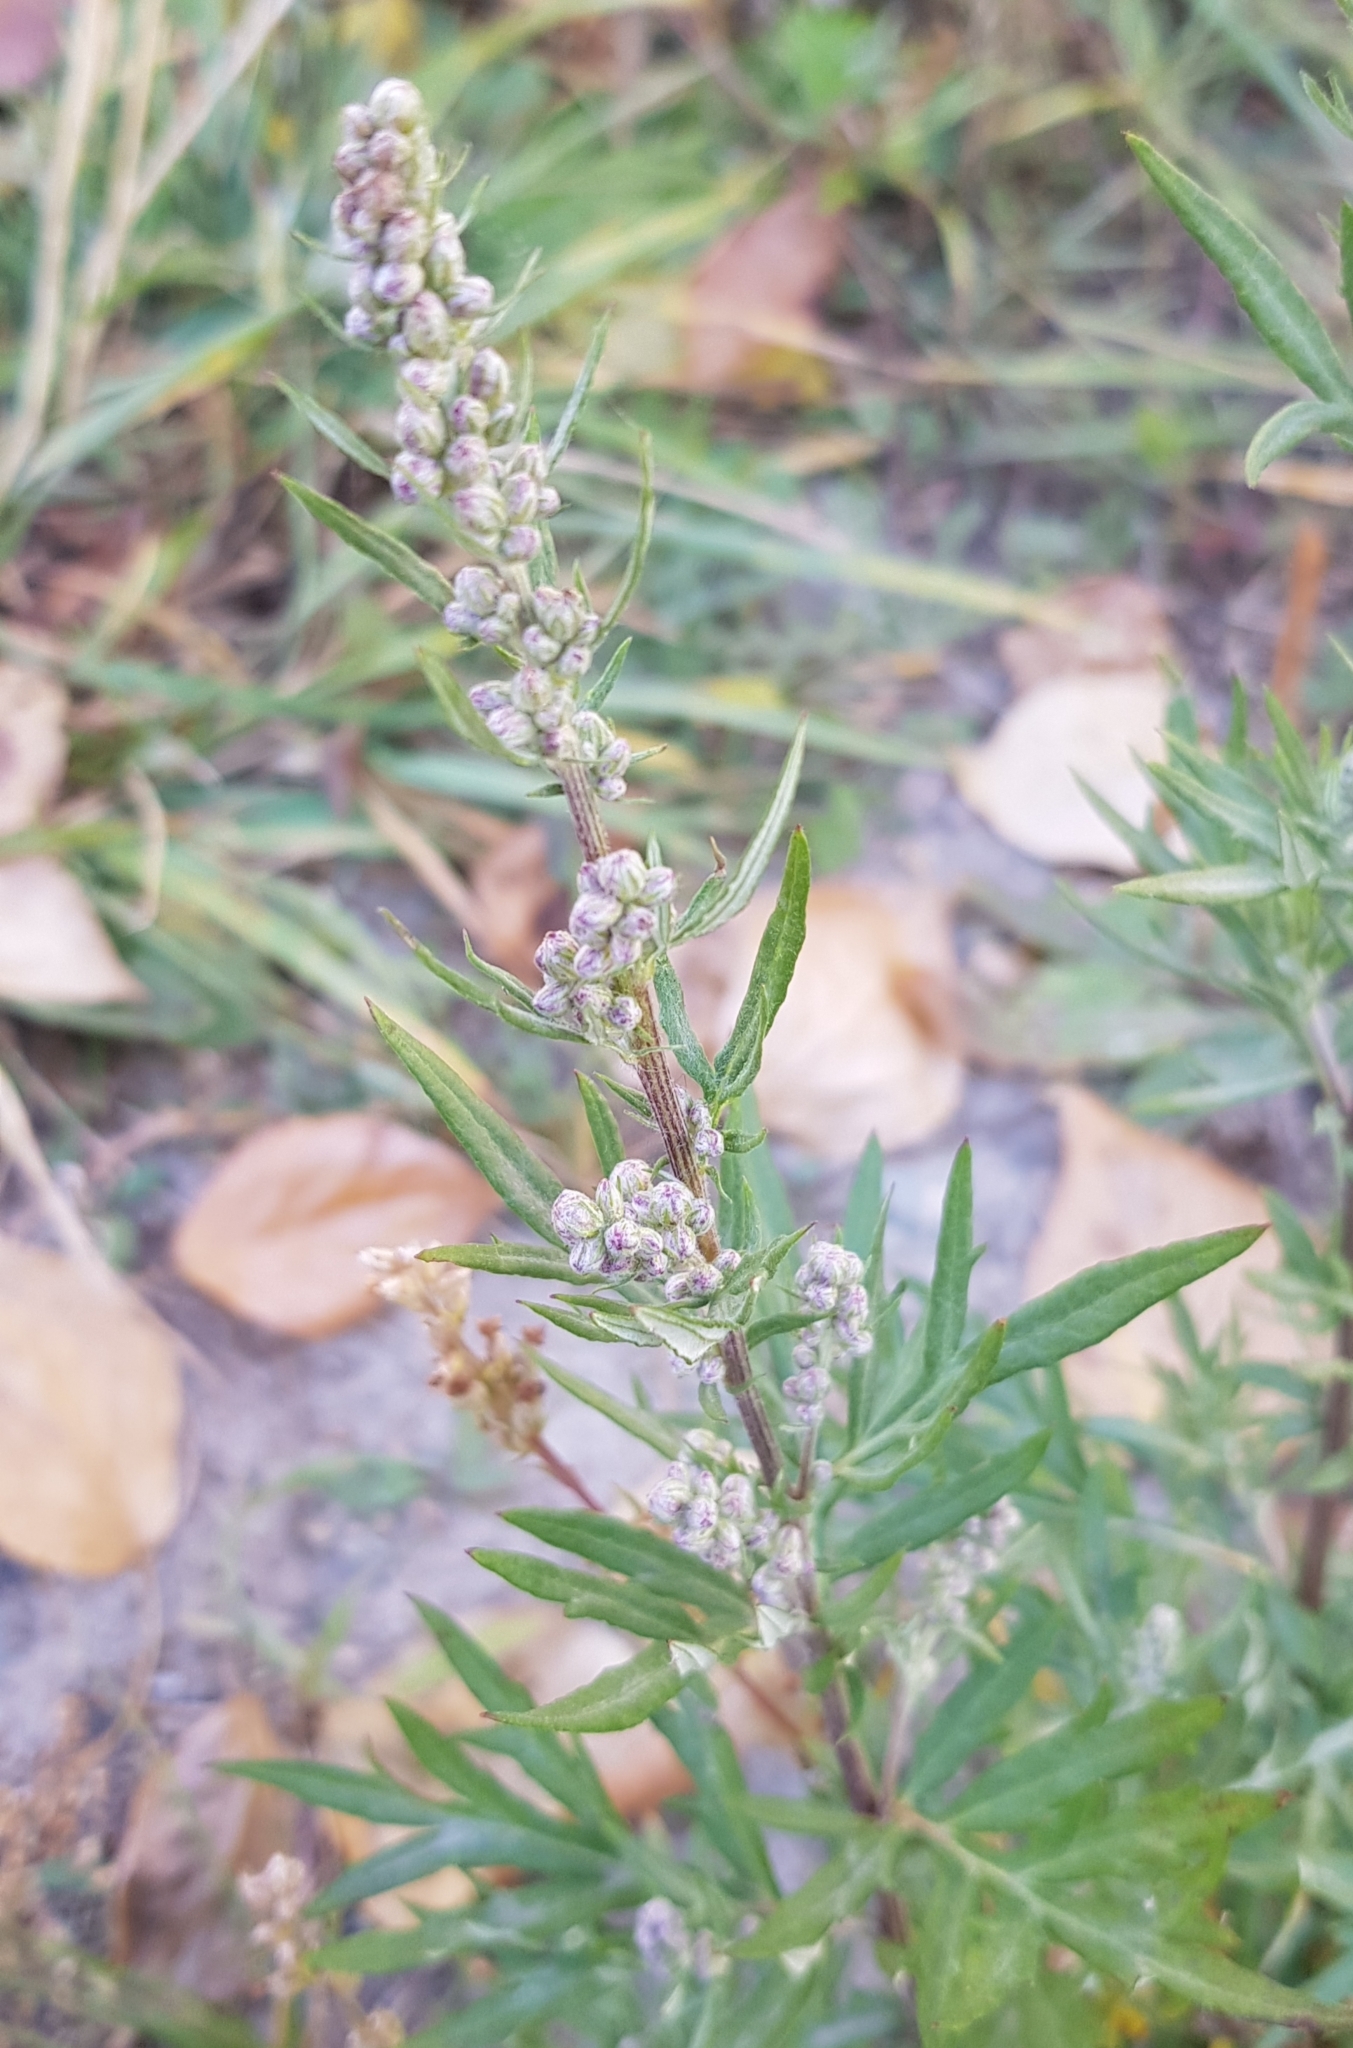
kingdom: Plantae
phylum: Tracheophyta
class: Magnoliopsida
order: Asterales
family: Asteraceae
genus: Artemisia
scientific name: Artemisia vulgaris
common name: Mugwort
